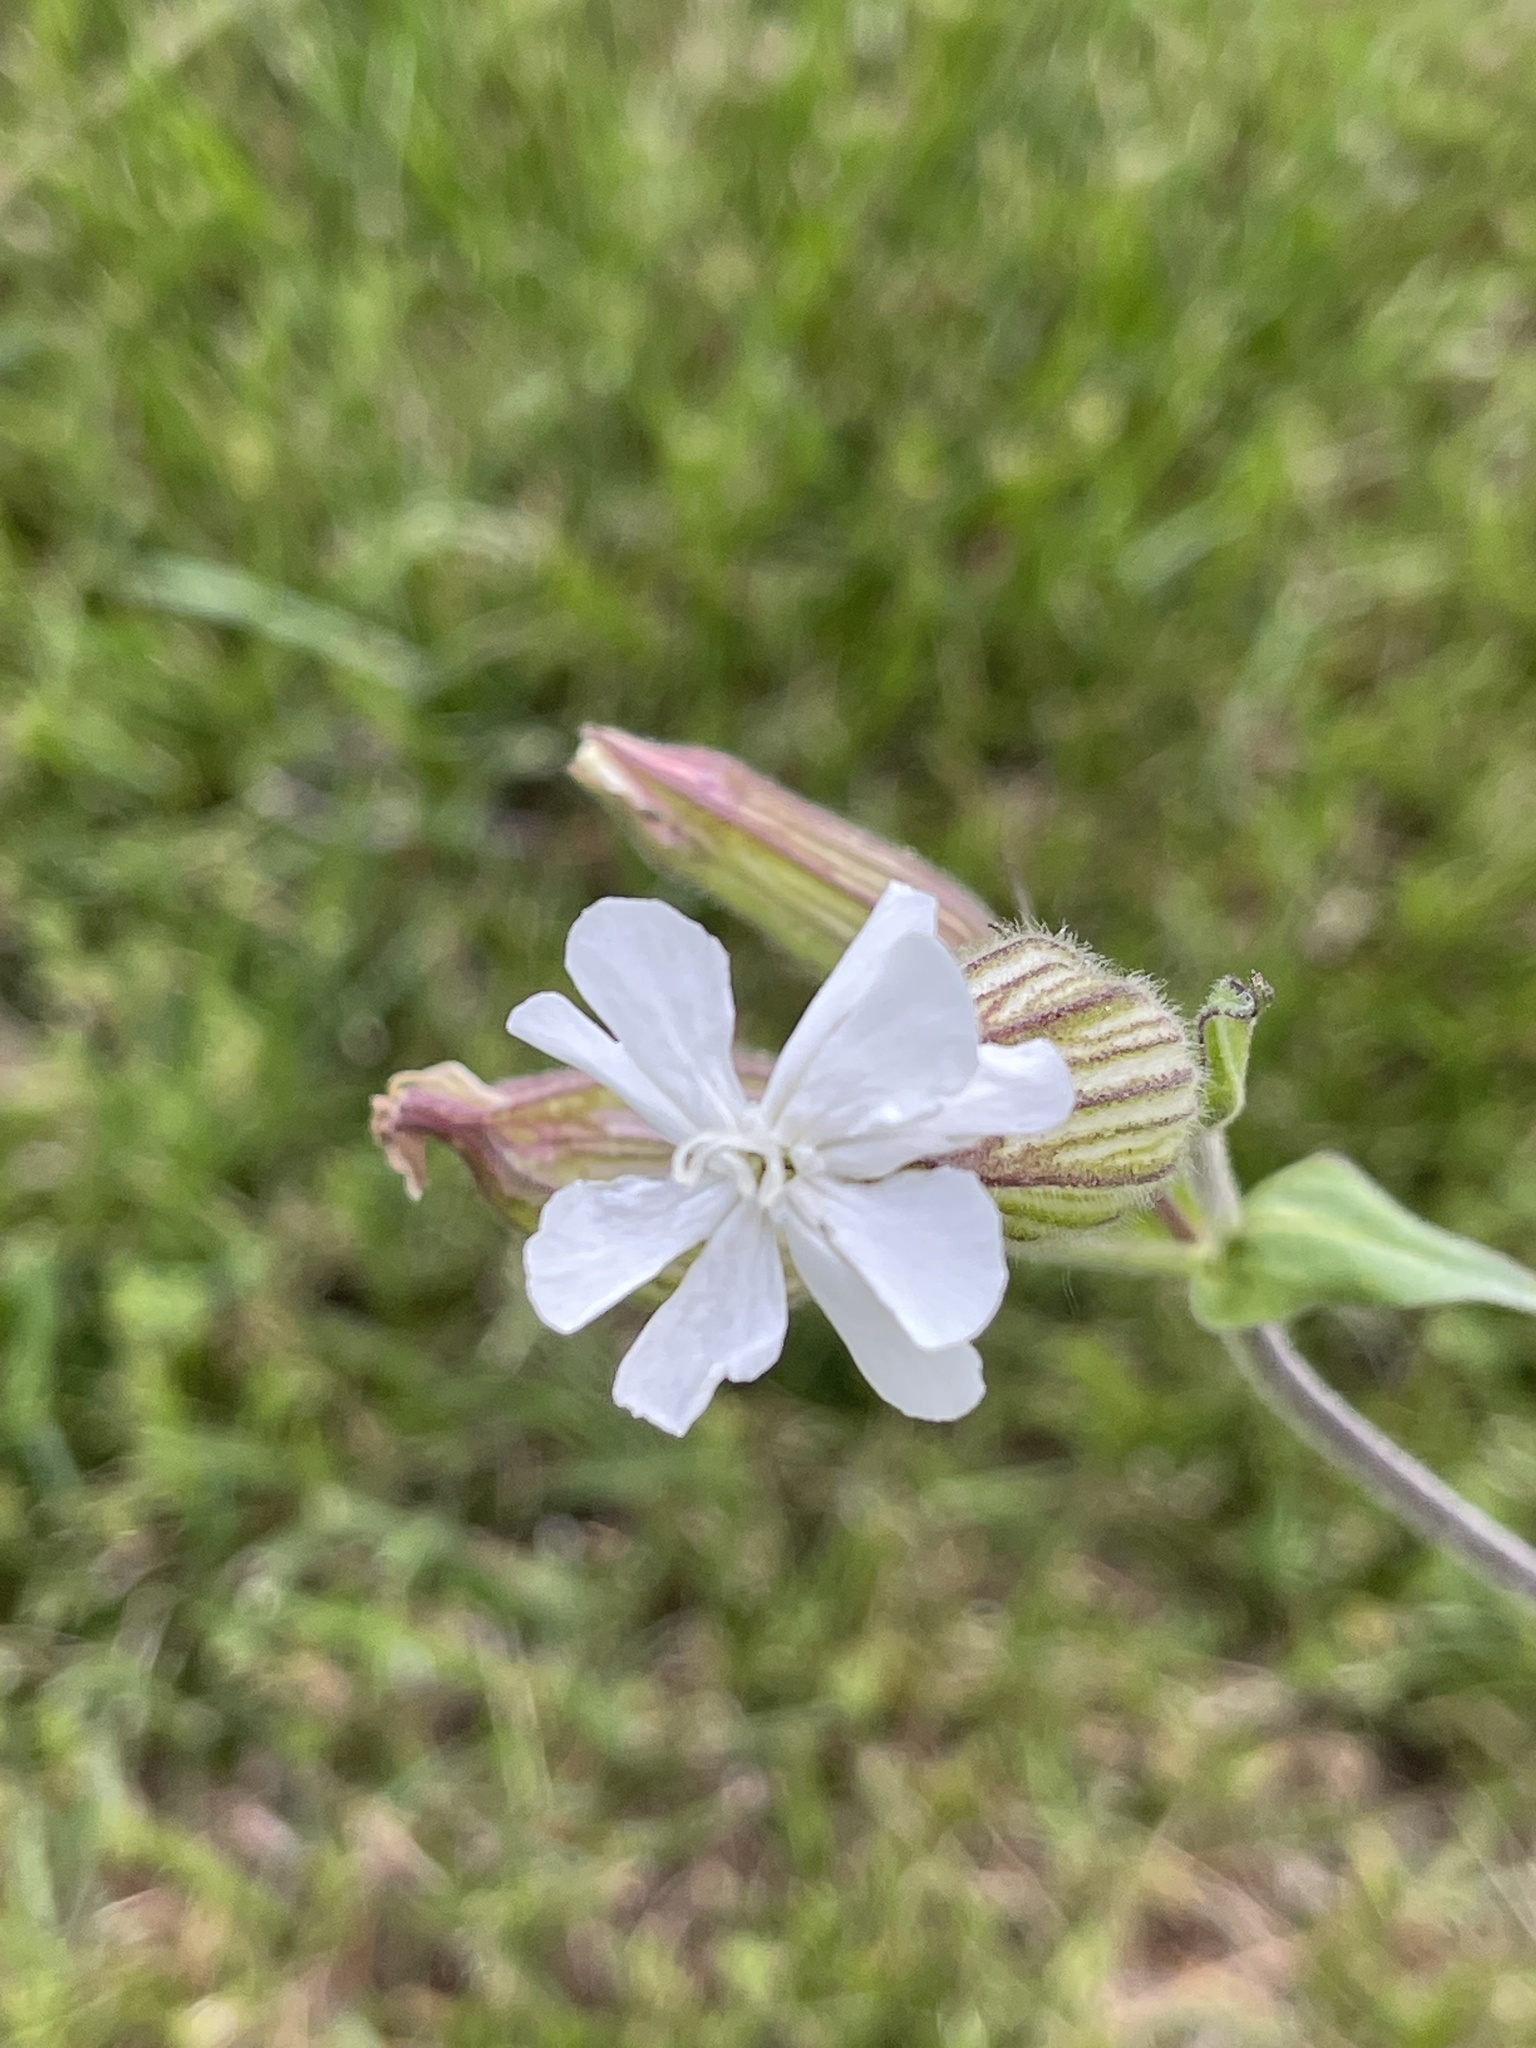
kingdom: Plantae
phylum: Tracheophyta
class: Magnoliopsida
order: Caryophyllales
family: Caryophyllaceae
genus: Silene
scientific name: Silene latifolia
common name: White campion
